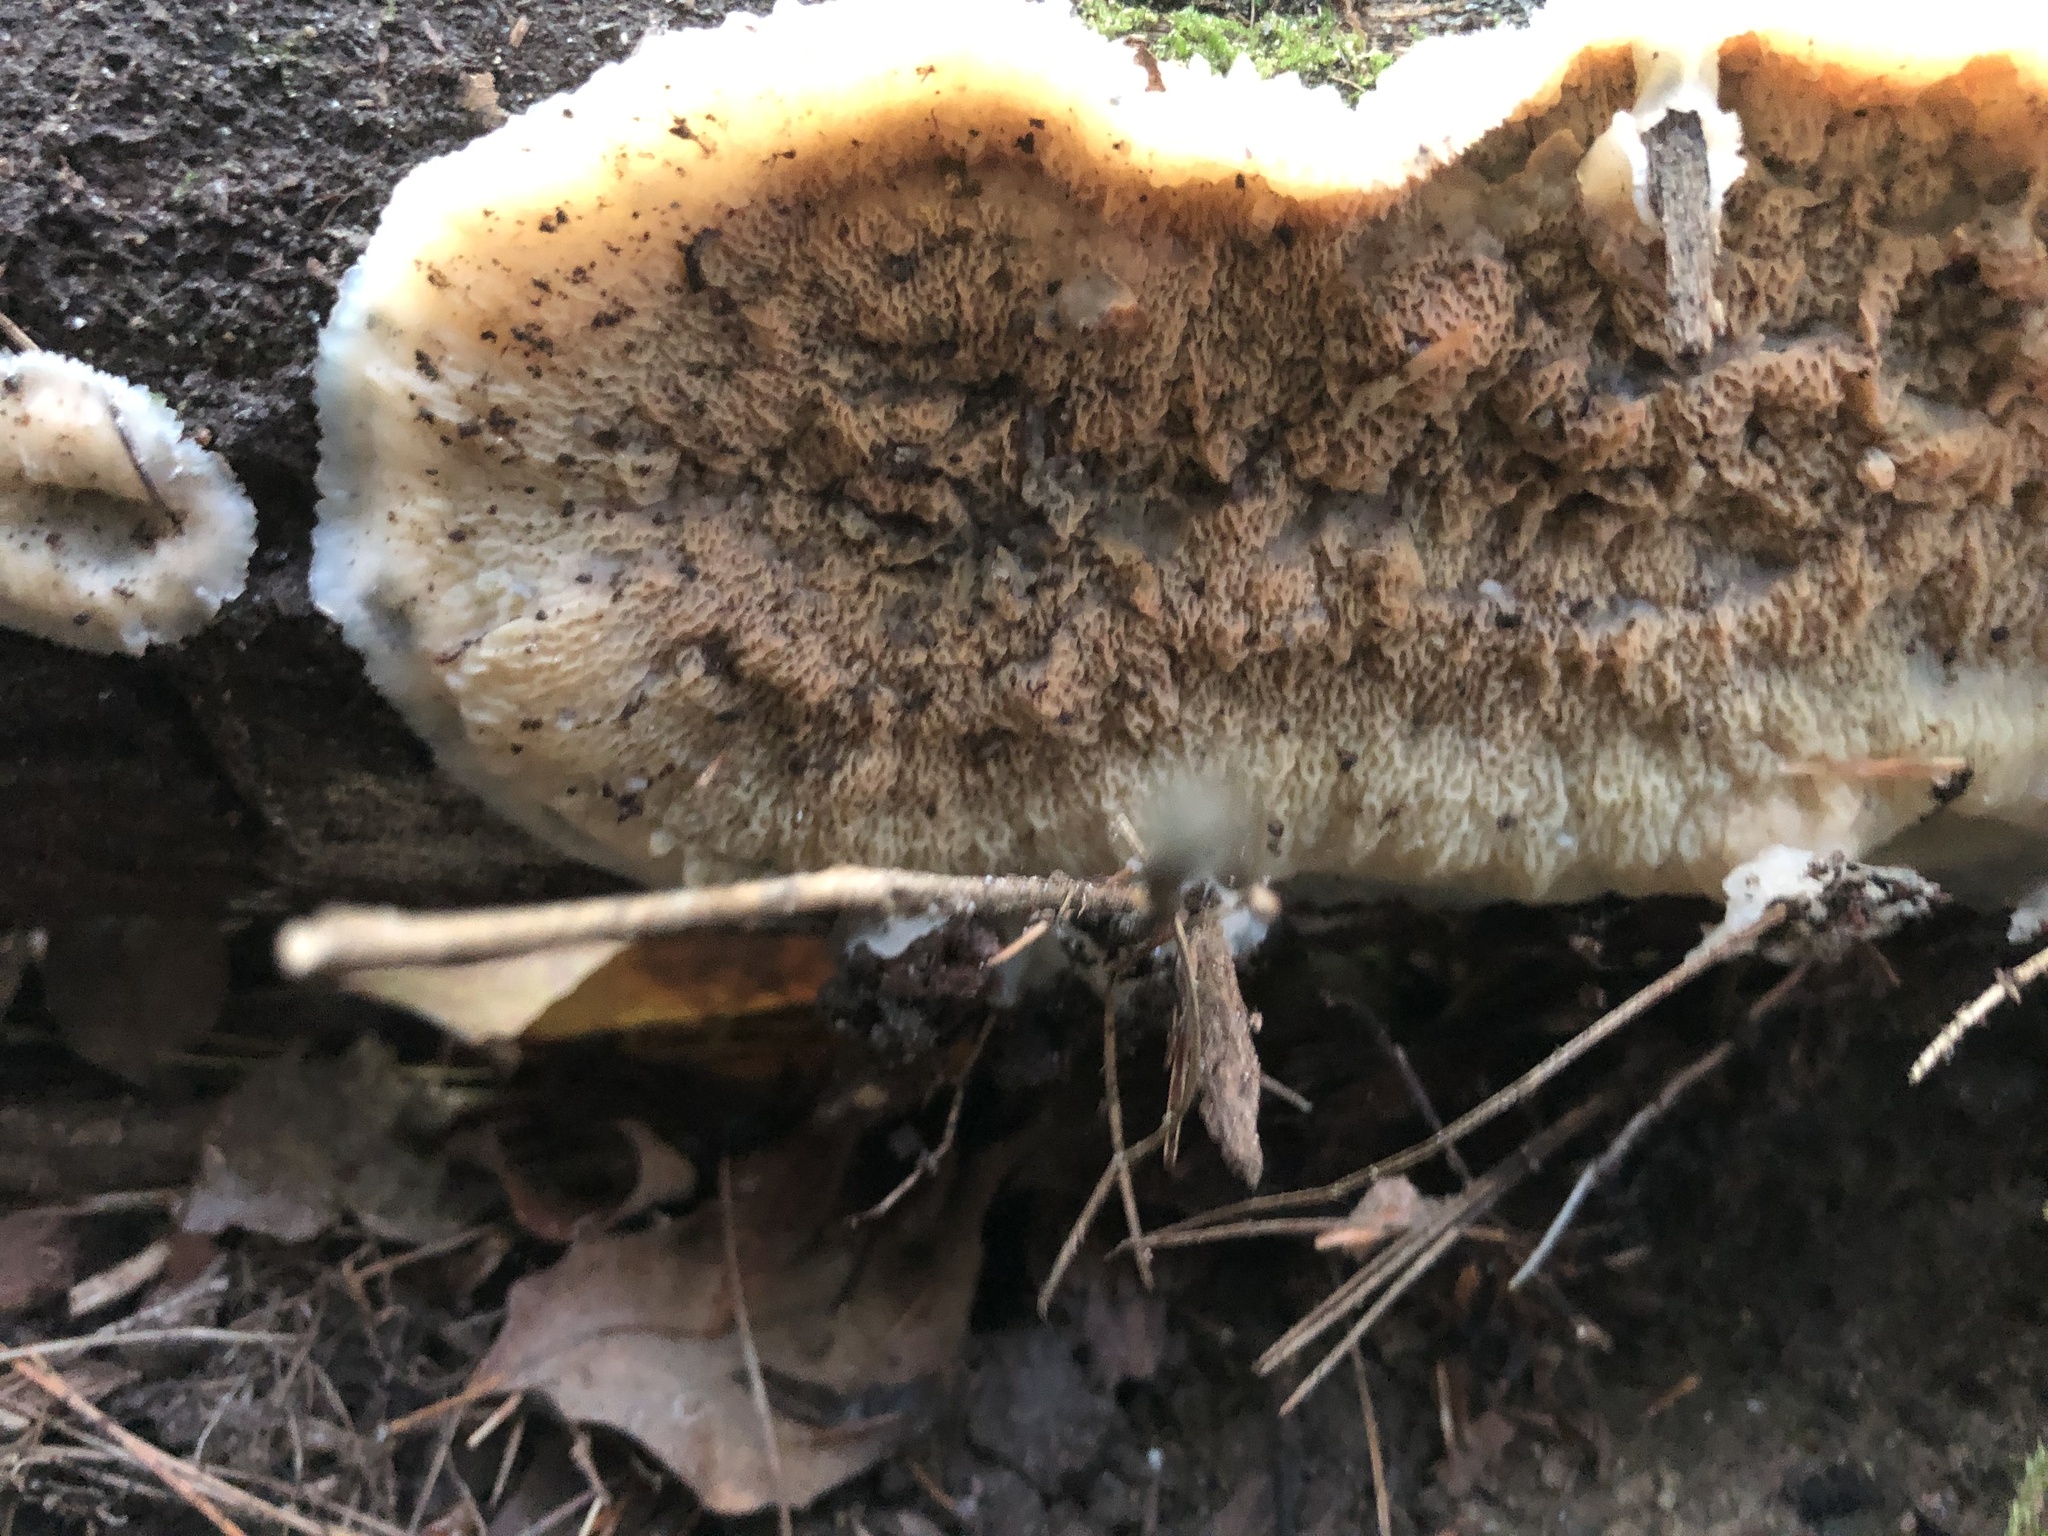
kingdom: Fungi
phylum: Basidiomycota
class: Agaricomycetes
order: Polyporales
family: Meruliaceae
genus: Phlebia
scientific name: Phlebia tremellosa
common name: Jelly rot
